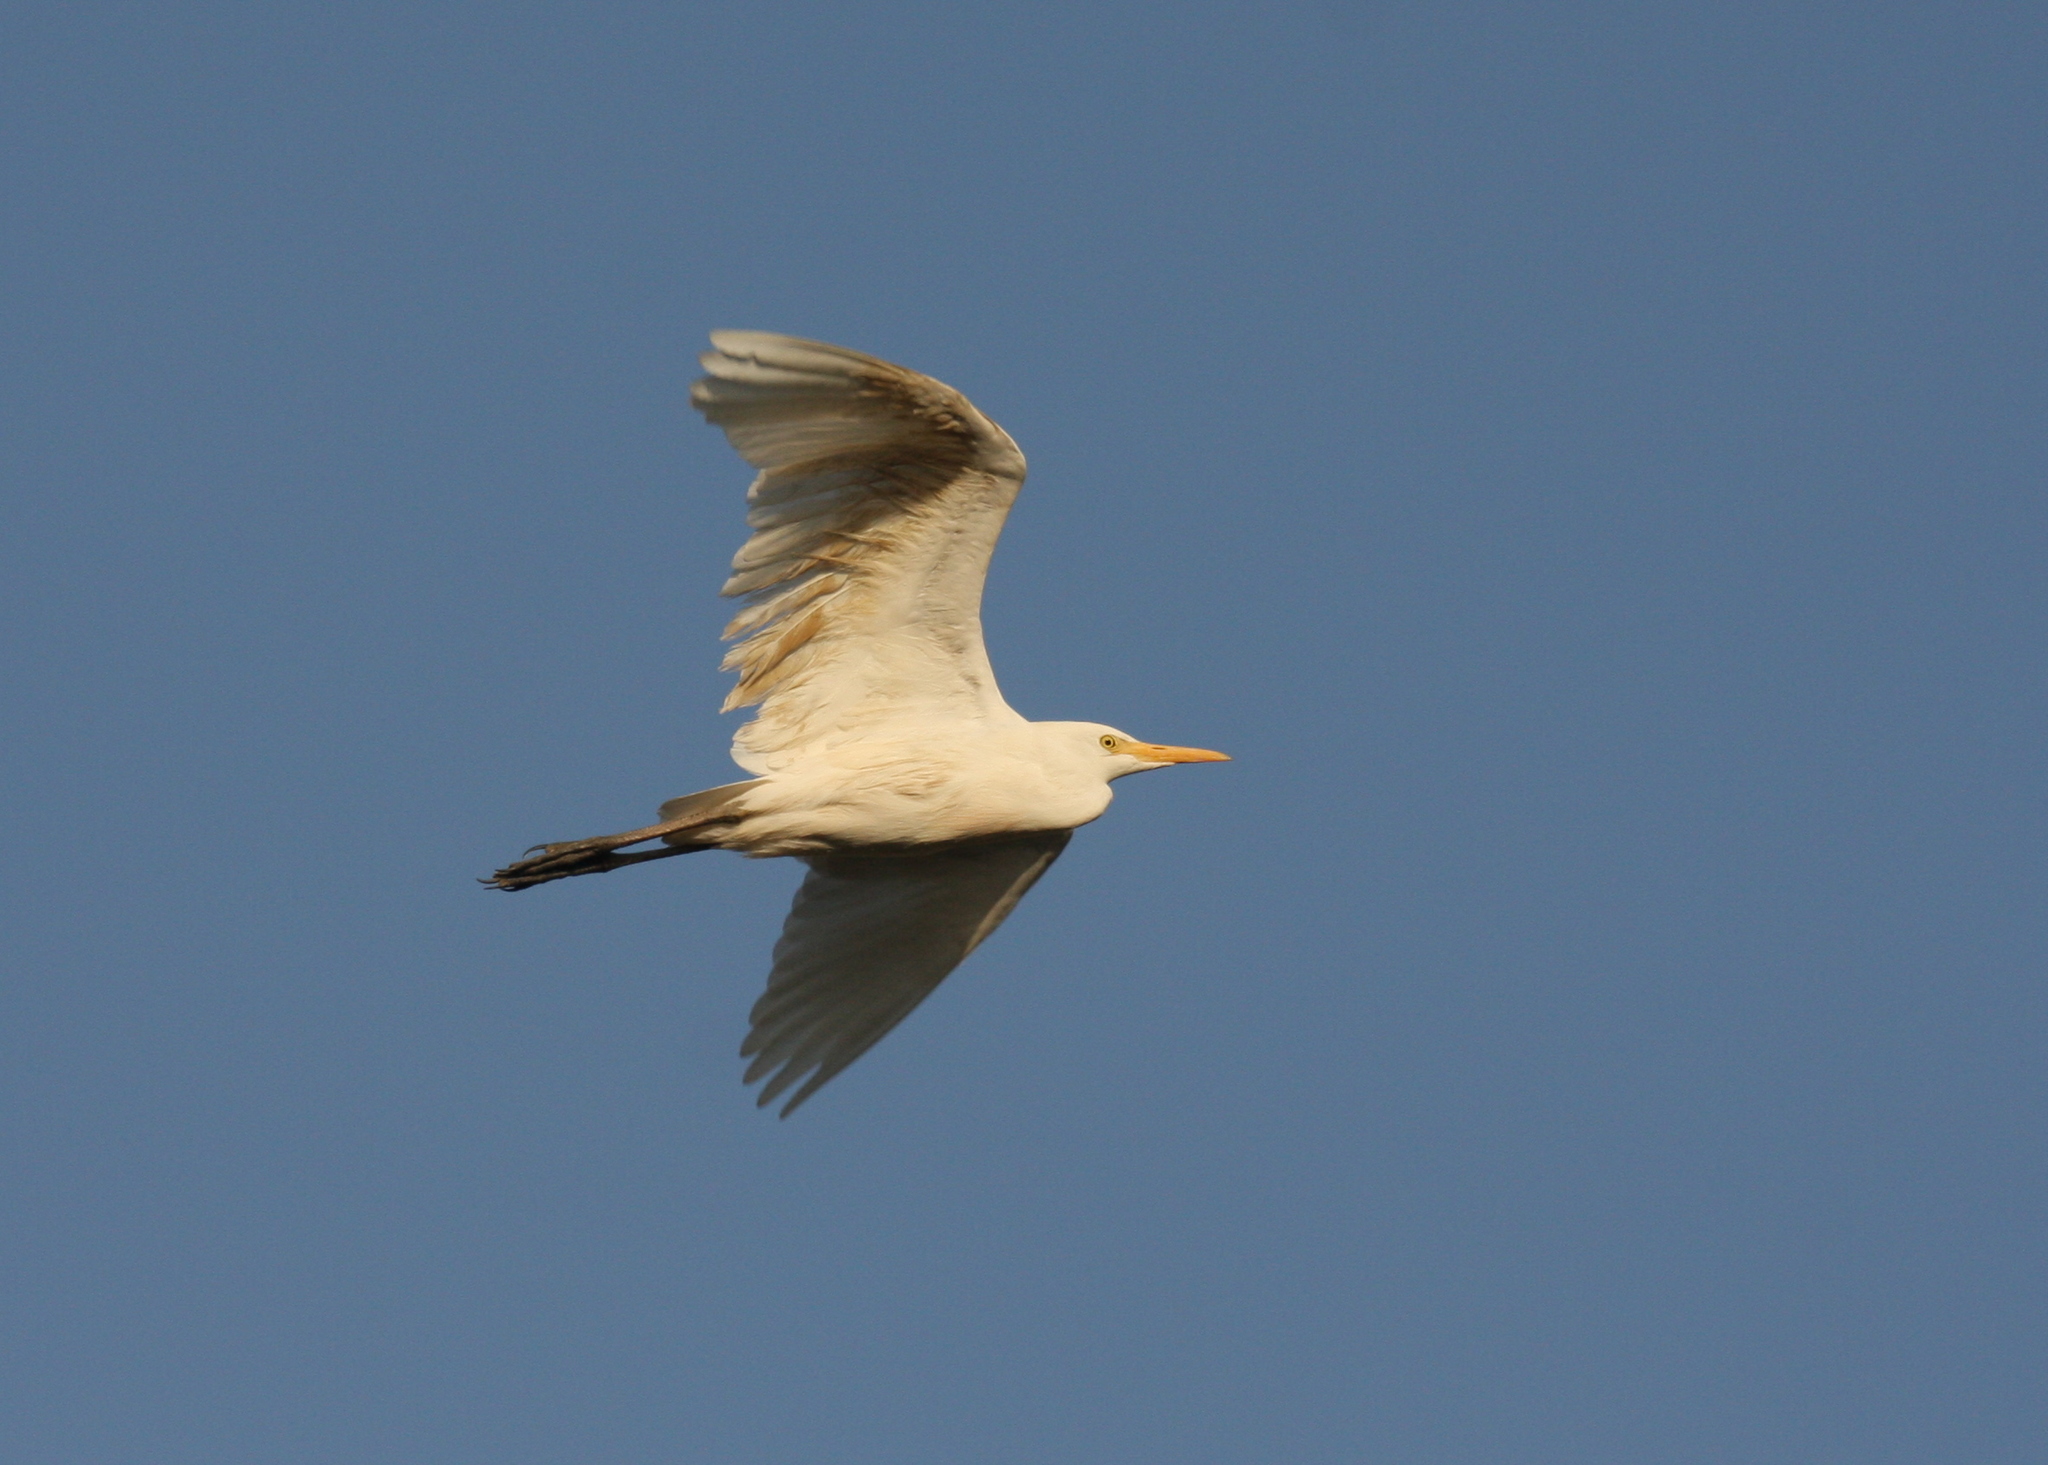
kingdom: Animalia
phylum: Chordata
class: Aves
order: Pelecaniformes
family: Ardeidae
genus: Bubulcus
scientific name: Bubulcus ibis
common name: Cattle egret
